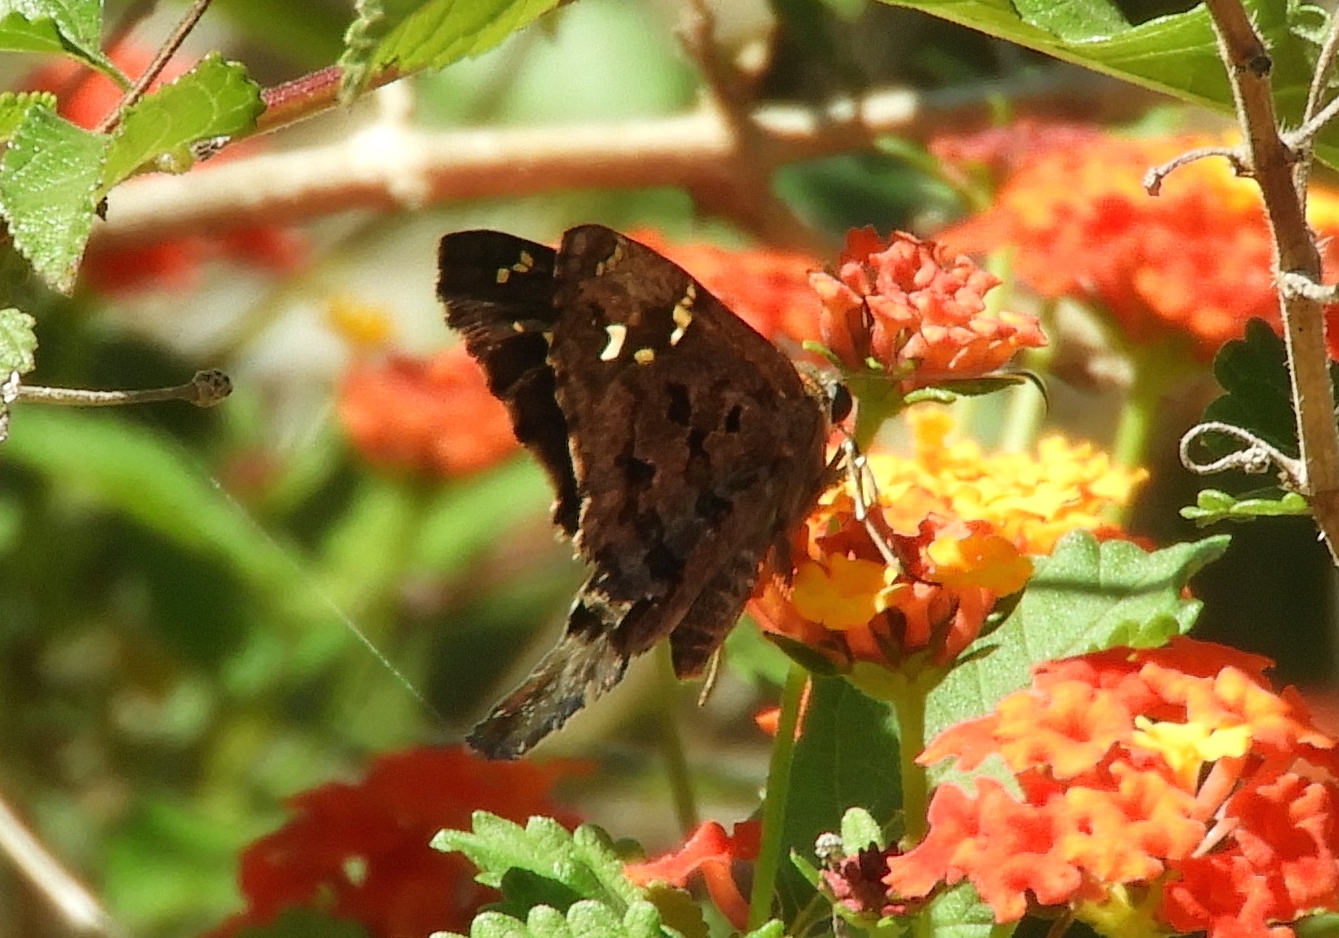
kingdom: Animalia
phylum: Arthropoda
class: Insecta
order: Lepidoptera
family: Hesperiidae
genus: Thorybes
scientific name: Thorybes
